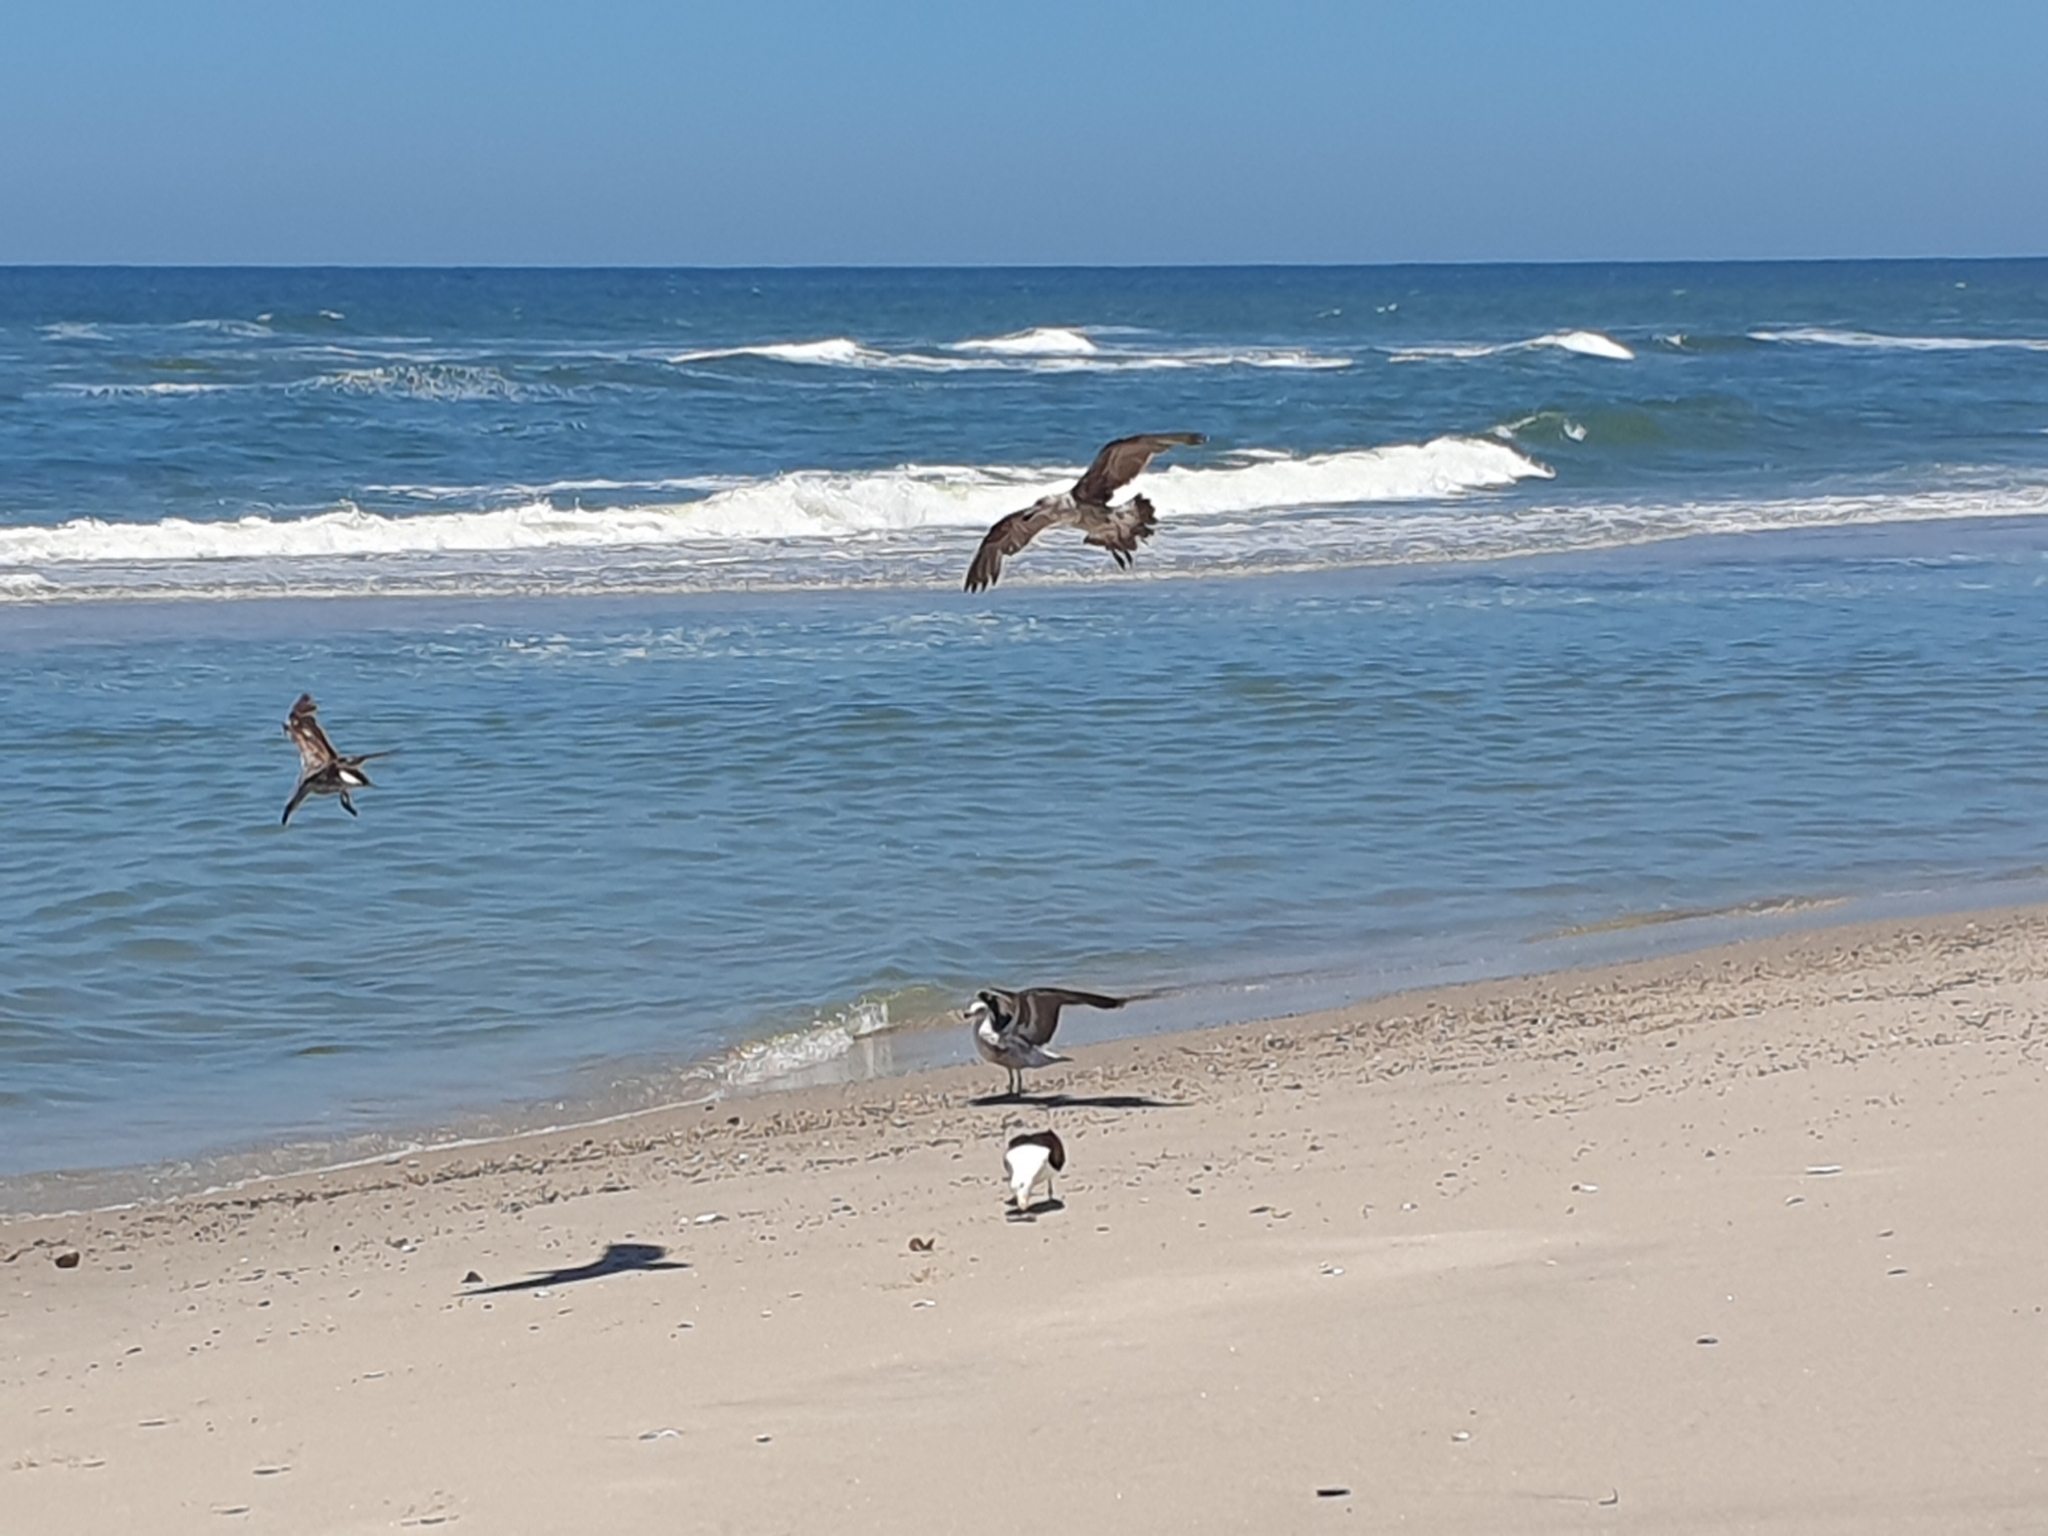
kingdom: Animalia
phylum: Chordata
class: Aves
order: Charadriiformes
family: Laridae
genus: Larus
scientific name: Larus dominicanus
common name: Kelp gull
